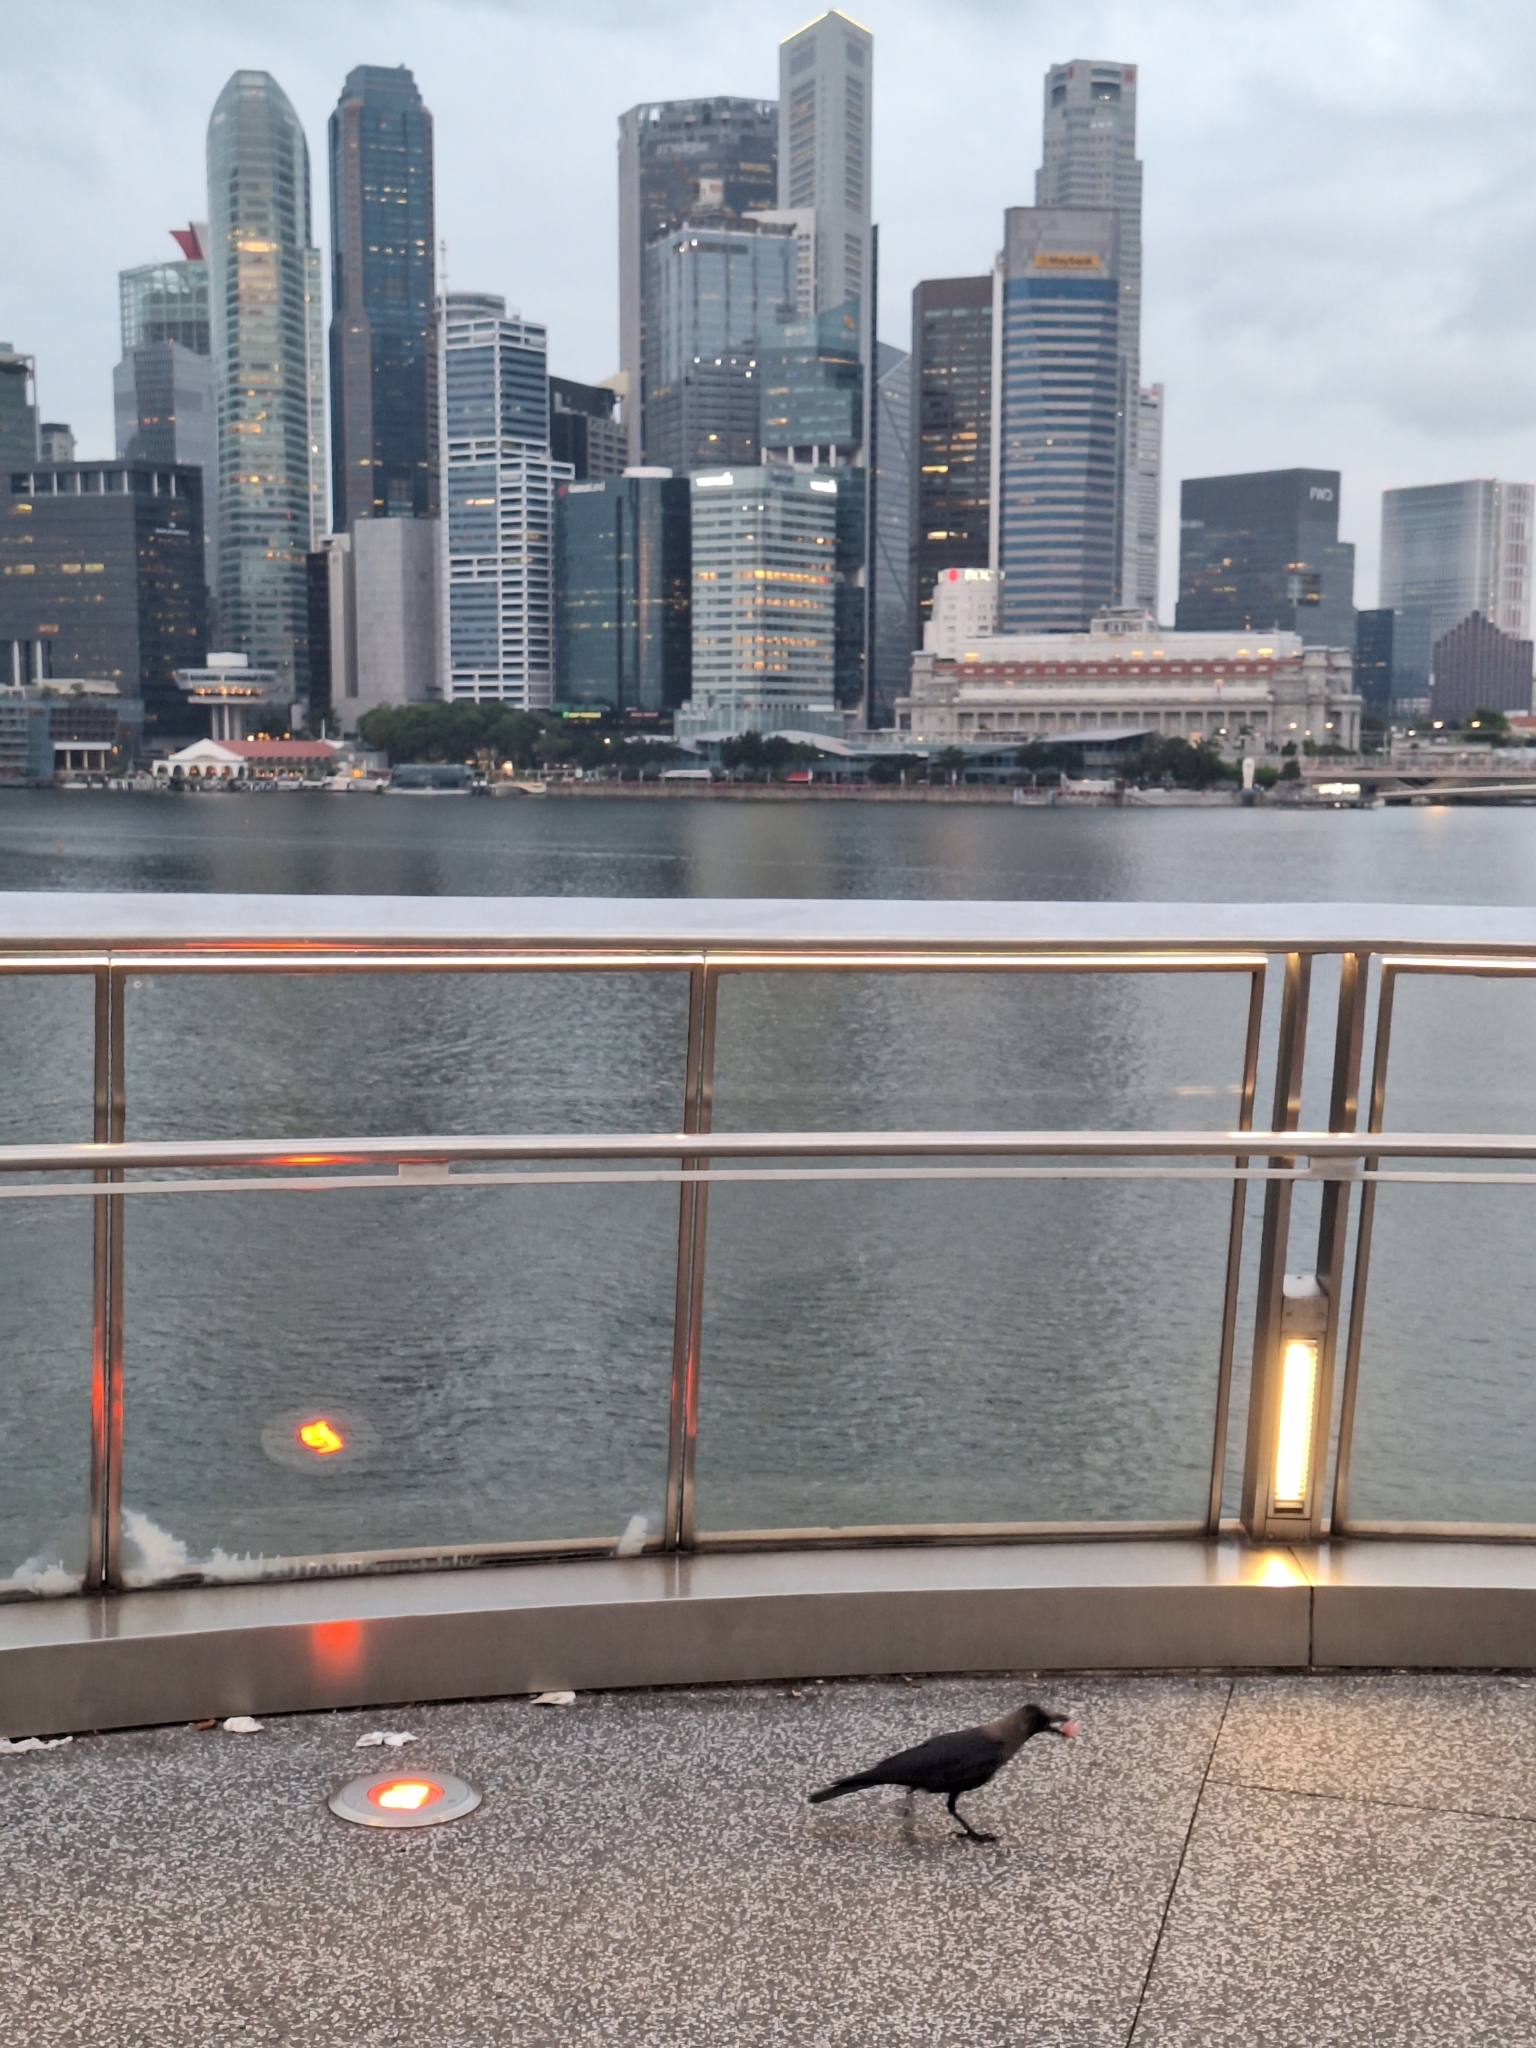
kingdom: Animalia
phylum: Chordata
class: Aves
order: Passeriformes
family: Corvidae
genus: Corvus
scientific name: Corvus splendens
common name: House crow
